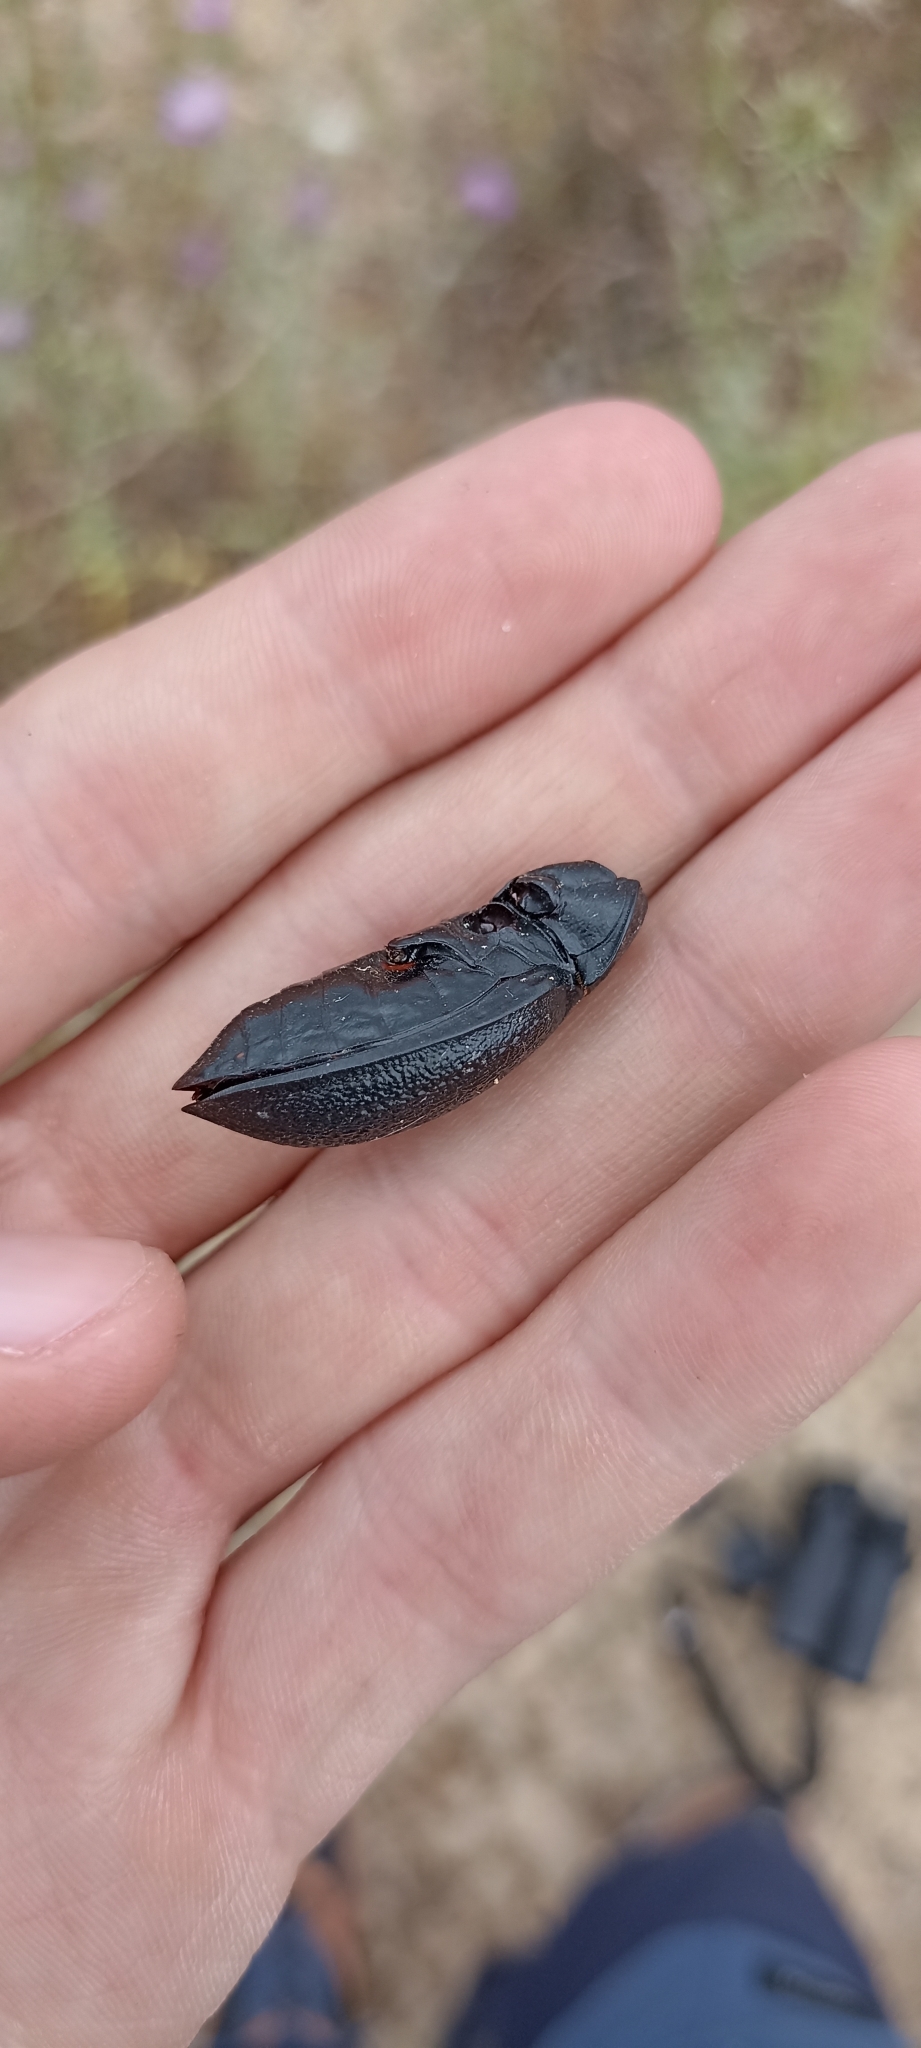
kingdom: Animalia
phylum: Arthropoda
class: Insecta
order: Coleoptera
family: Carabidae
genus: Carabus
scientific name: Carabus coriaceus
